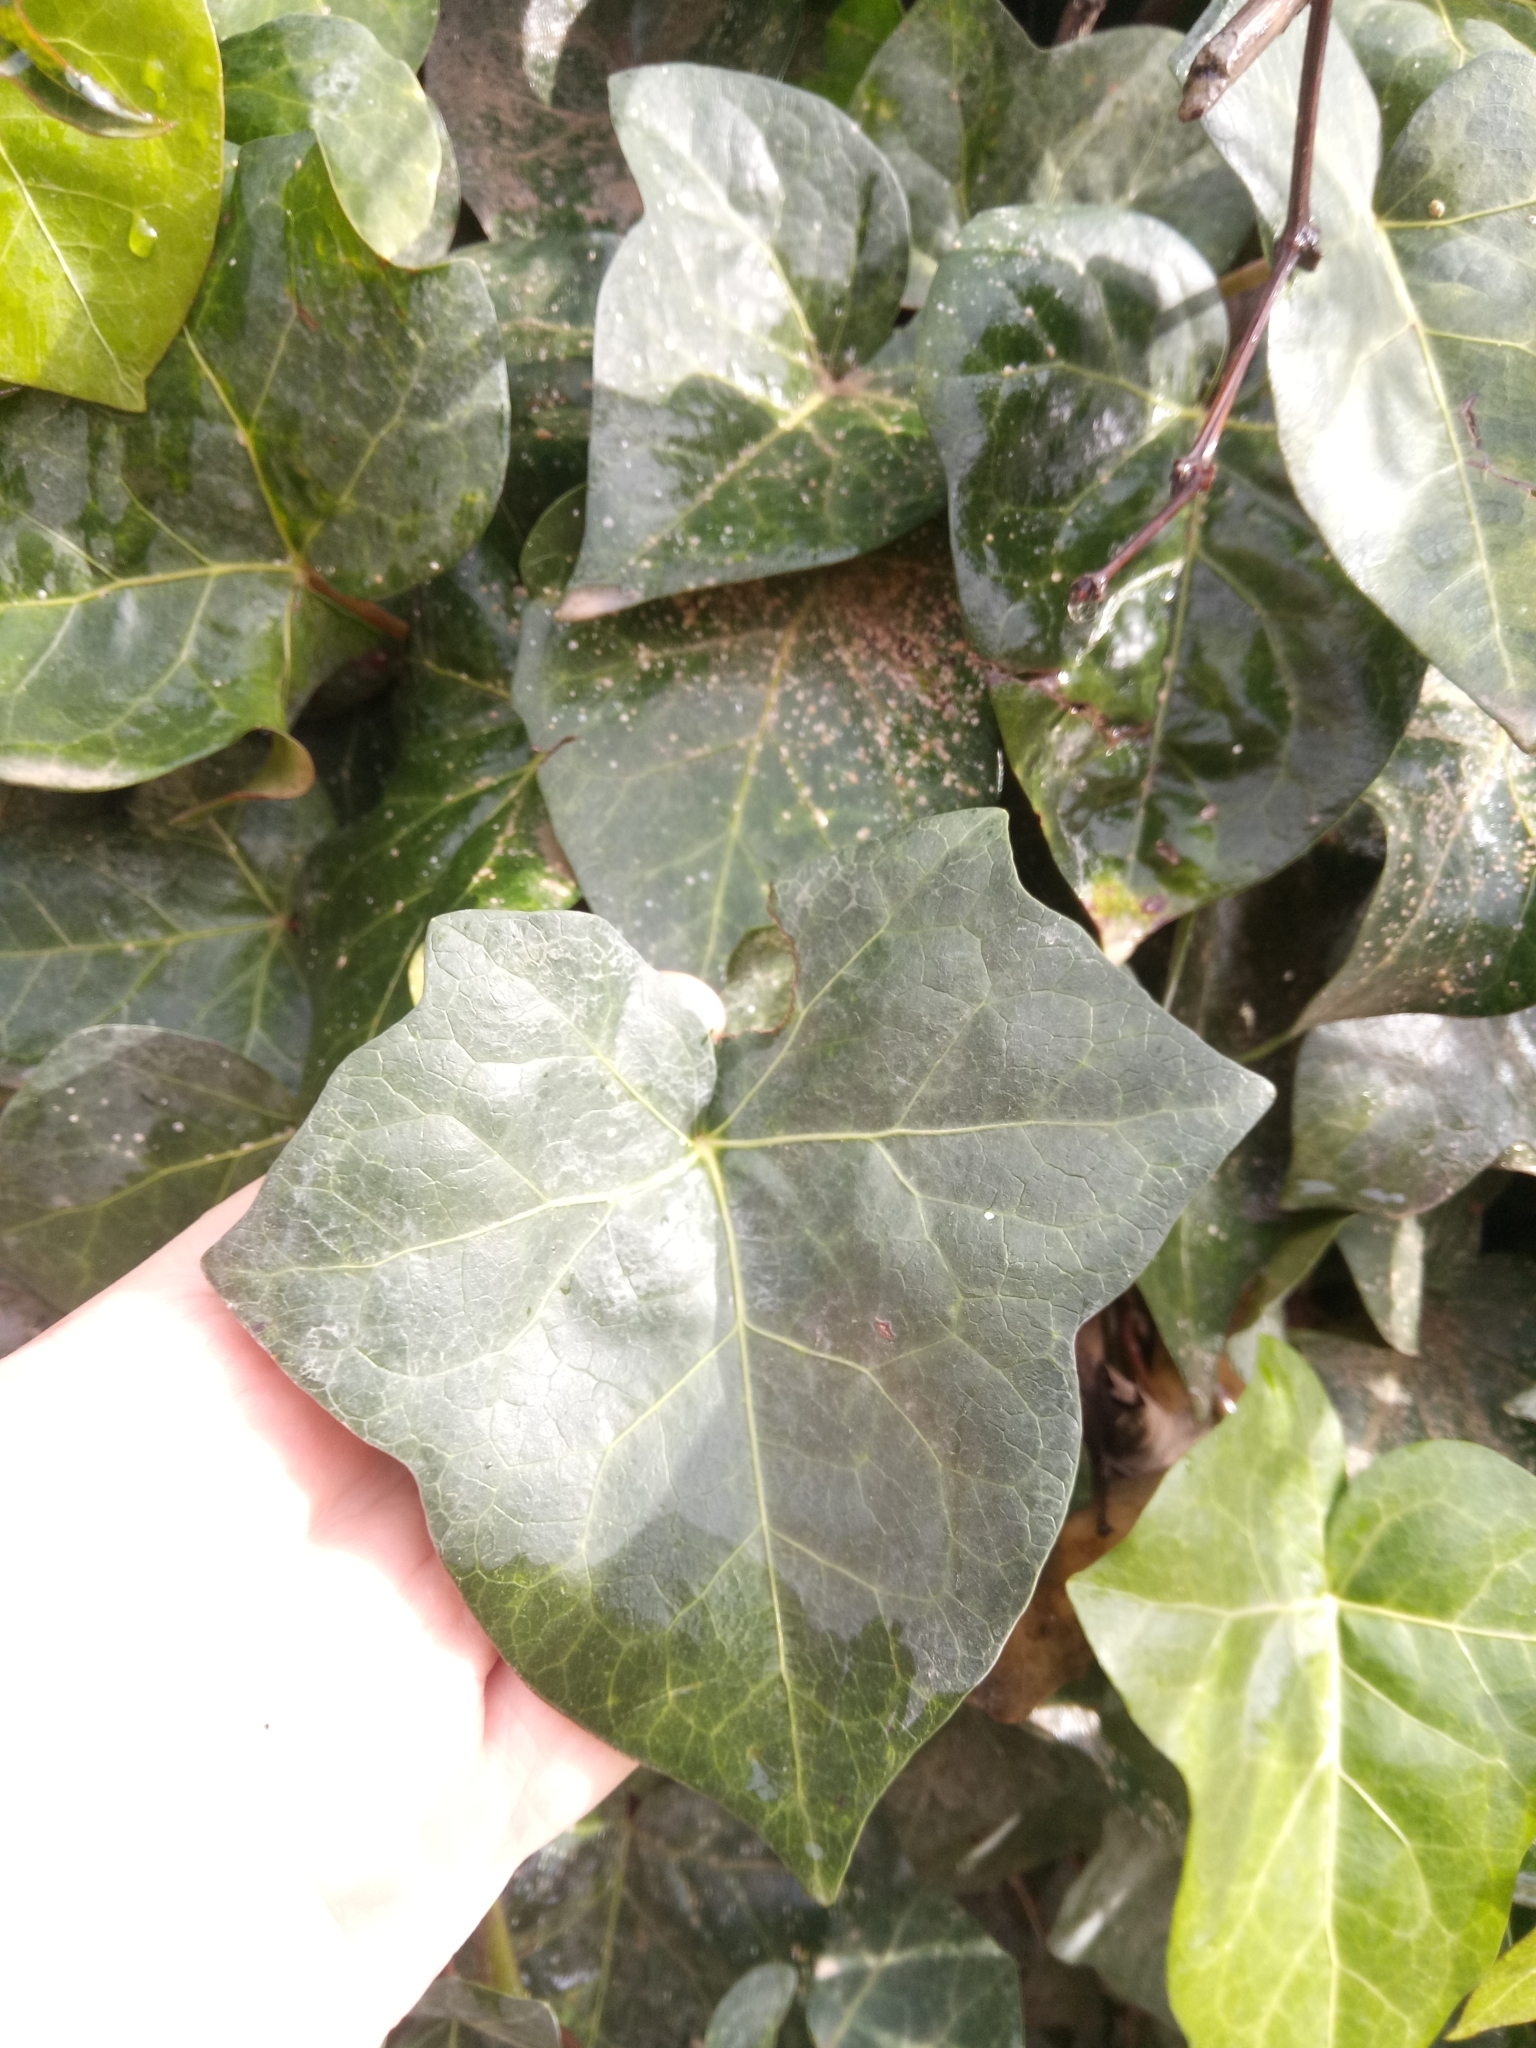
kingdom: Plantae
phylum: Tracheophyta
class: Magnoliopsida
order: Apiales
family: Araliaceae
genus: Hedera
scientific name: Hedera algeriensis
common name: Algerian ivy
